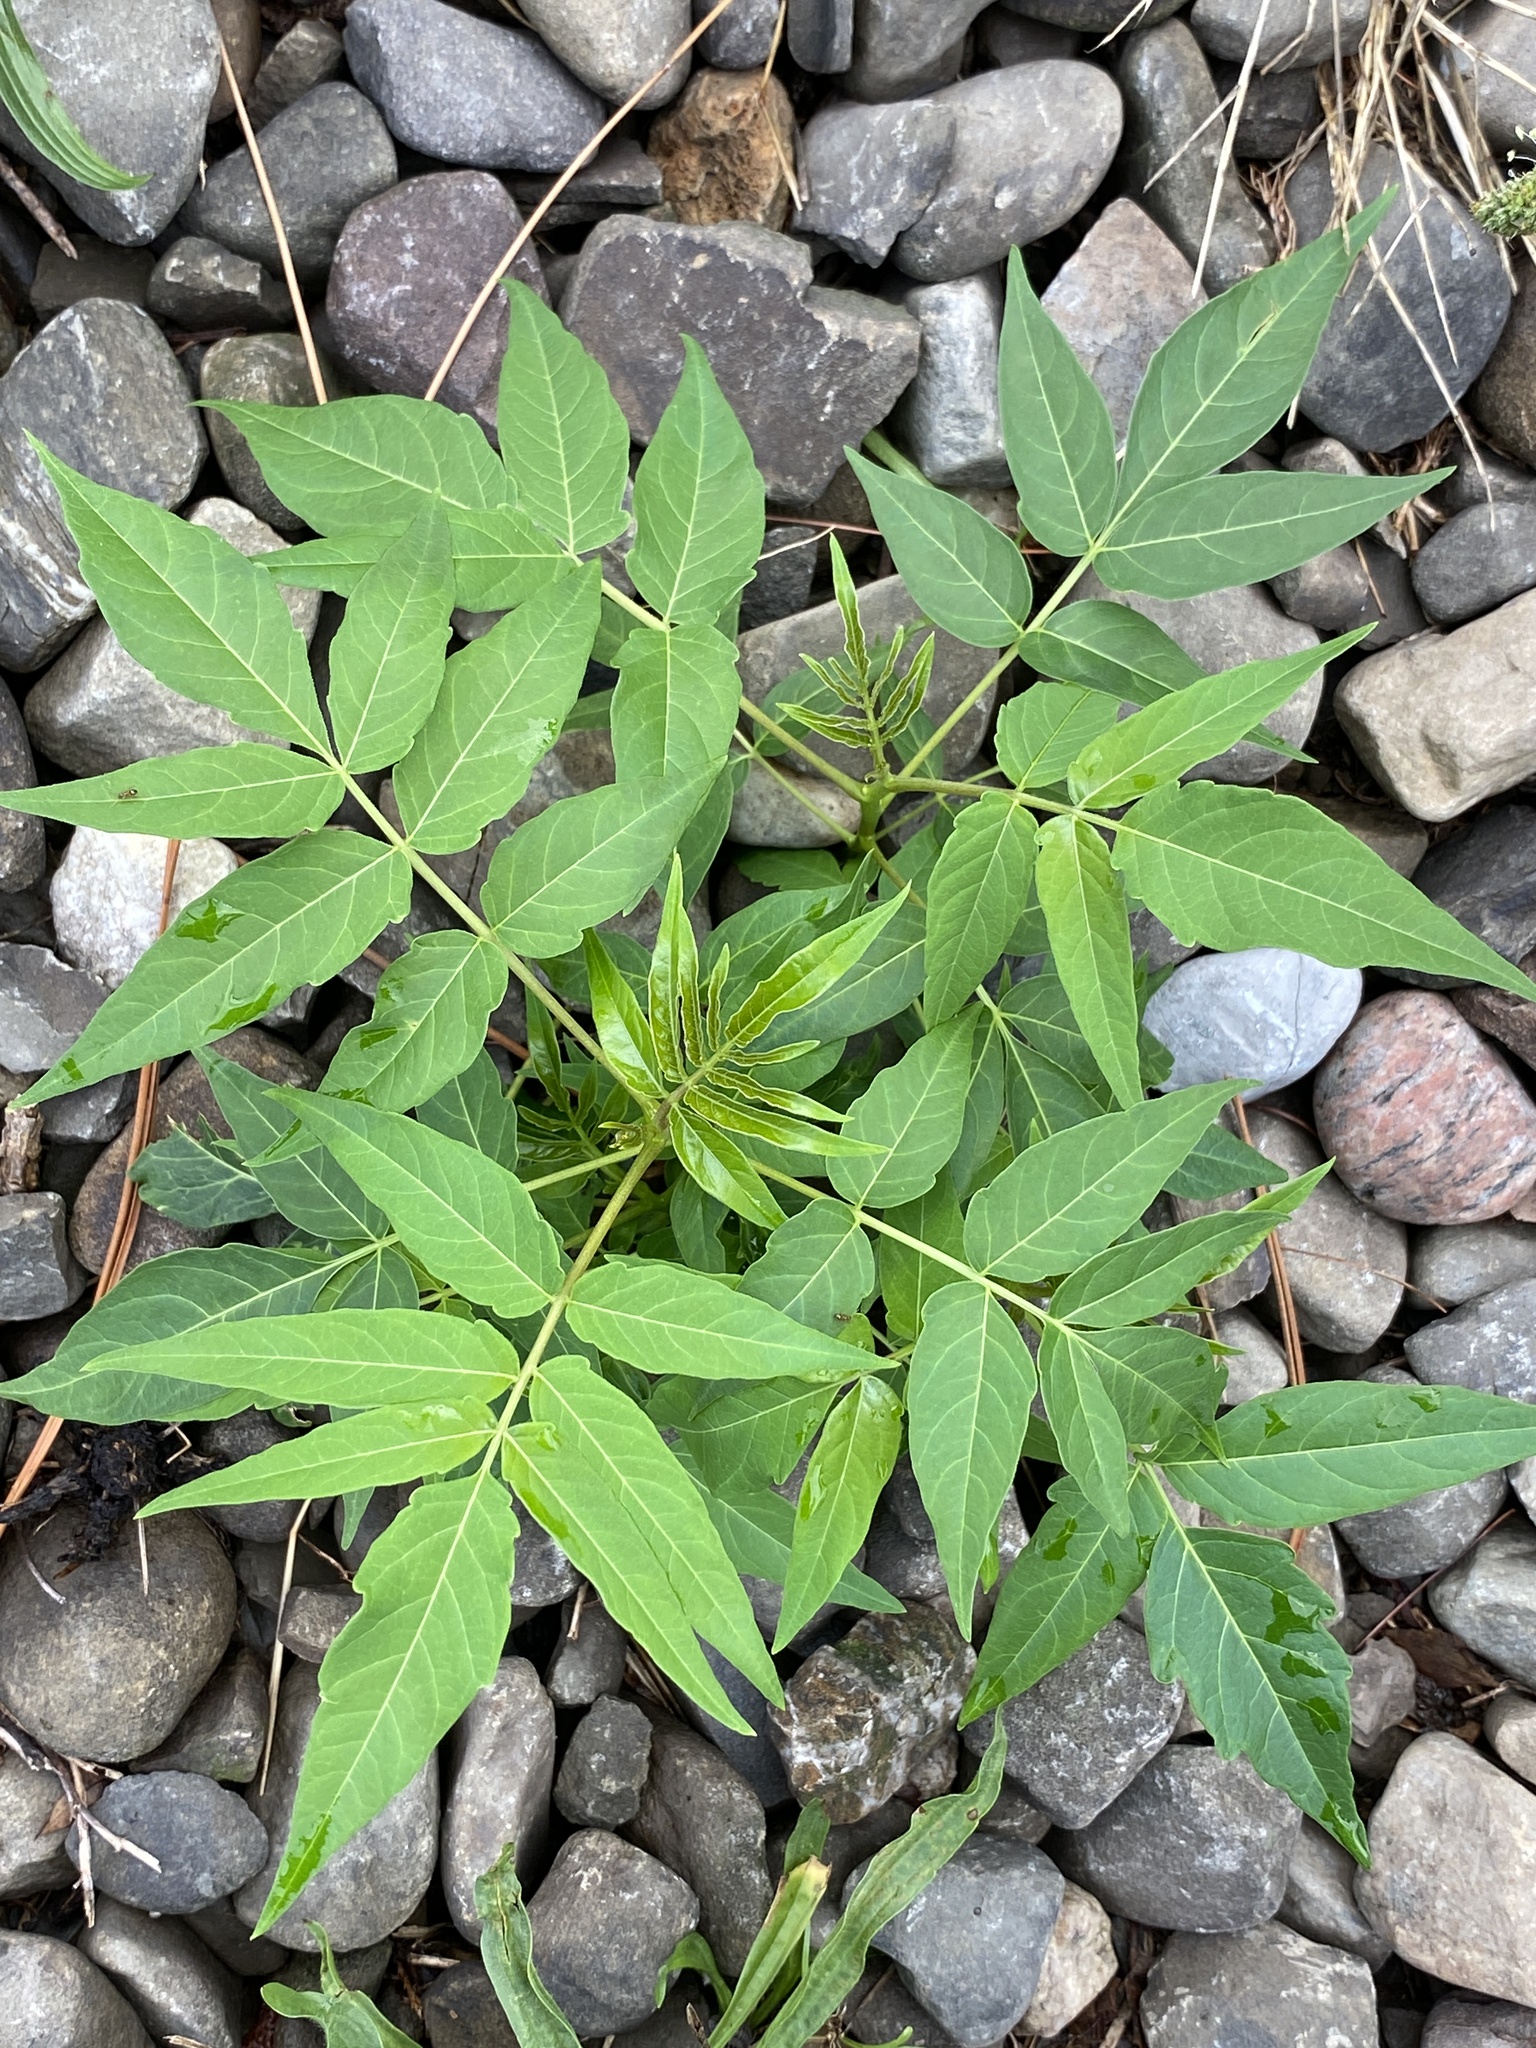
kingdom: Plantae
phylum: Tracheophyta
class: Magnoliopsida
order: Sapindales
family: Simaroubaceae
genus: Ailanthus
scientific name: Ailanthus altissima
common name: Tree-of-heaven
